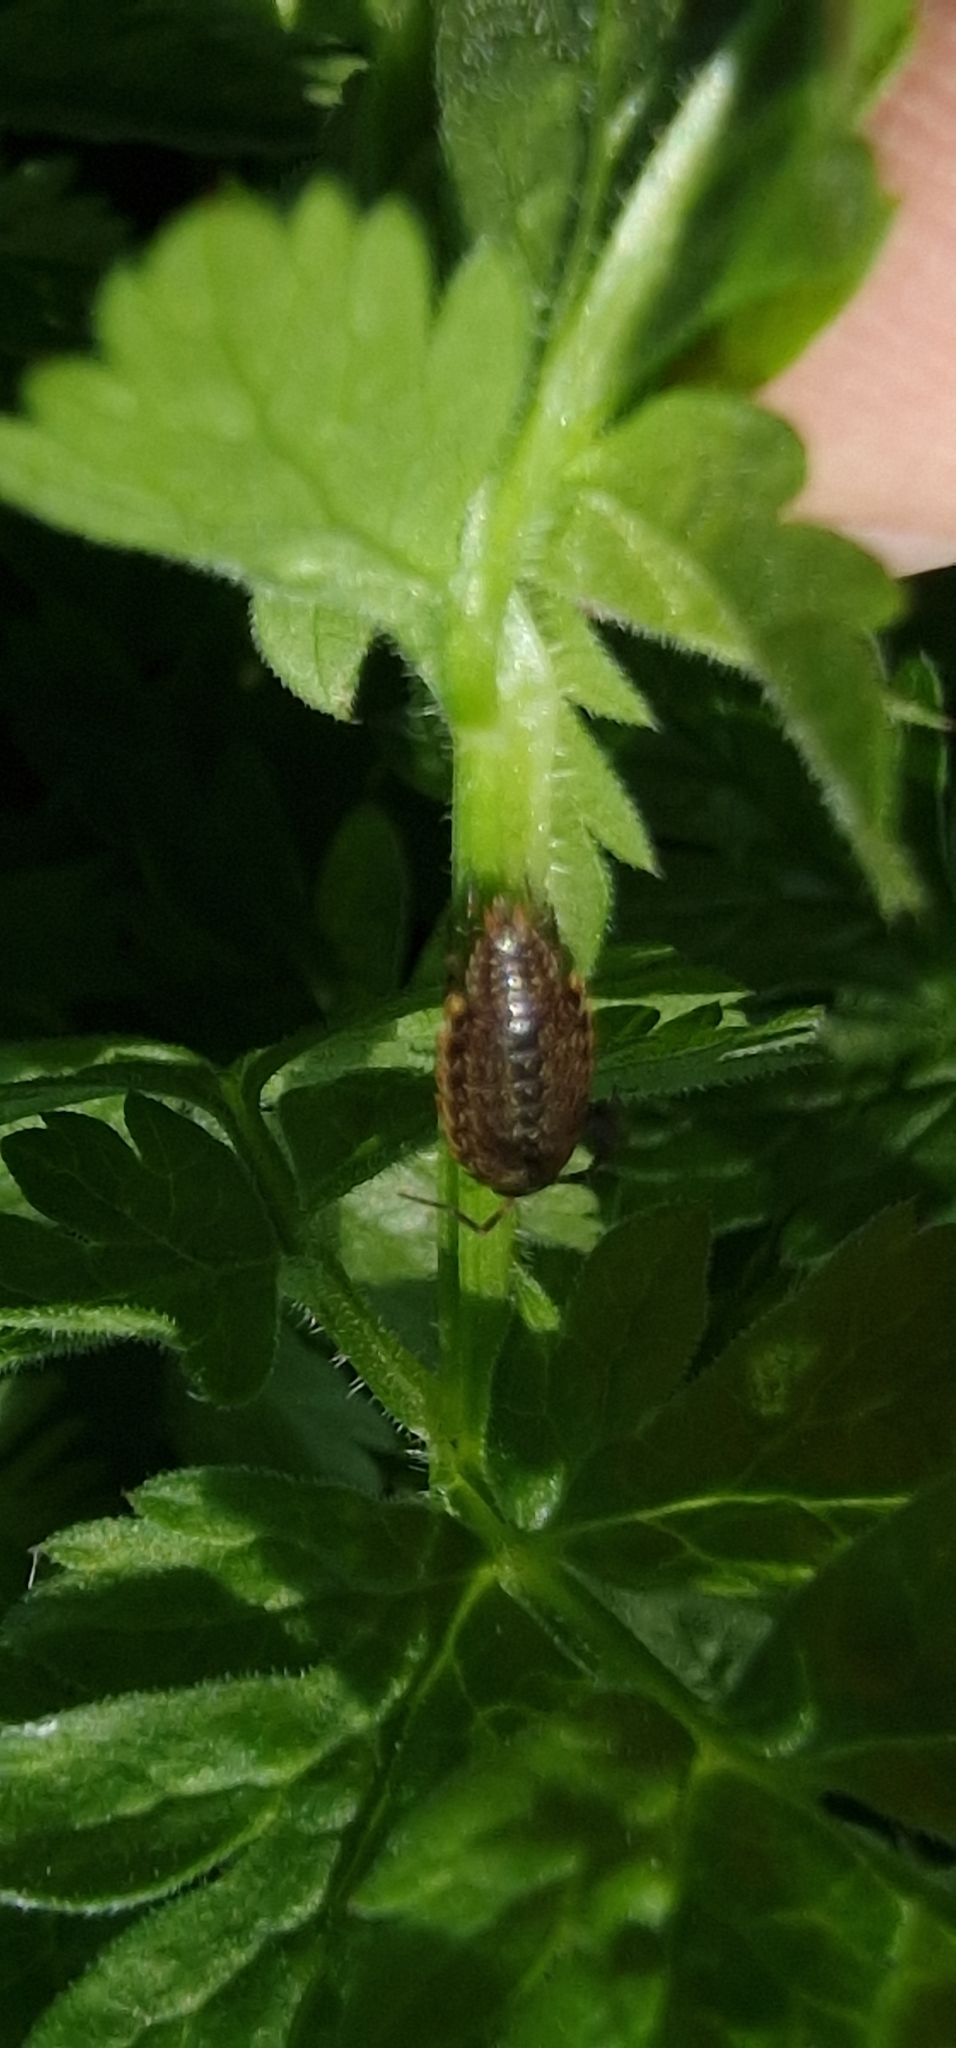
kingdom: Animalia
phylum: Arthropoda
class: Malacostraca
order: Isopoda
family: Philosciidae
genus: Philoscia
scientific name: Philoscia muscorum
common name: Common striped woodlouse
